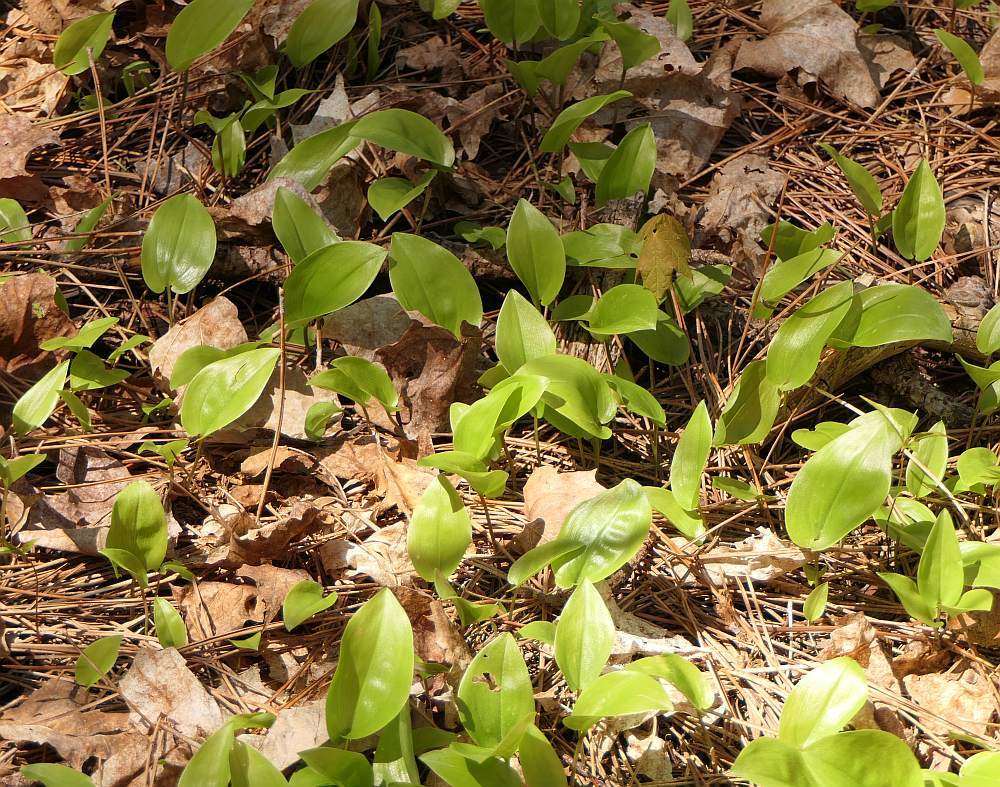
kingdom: Plantae
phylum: Tracheophyta
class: Liliopsida
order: Asparagales
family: Asparagaceae
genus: Maianthemum
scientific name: Maianthemum canadense
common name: False lily-of-the-valley
